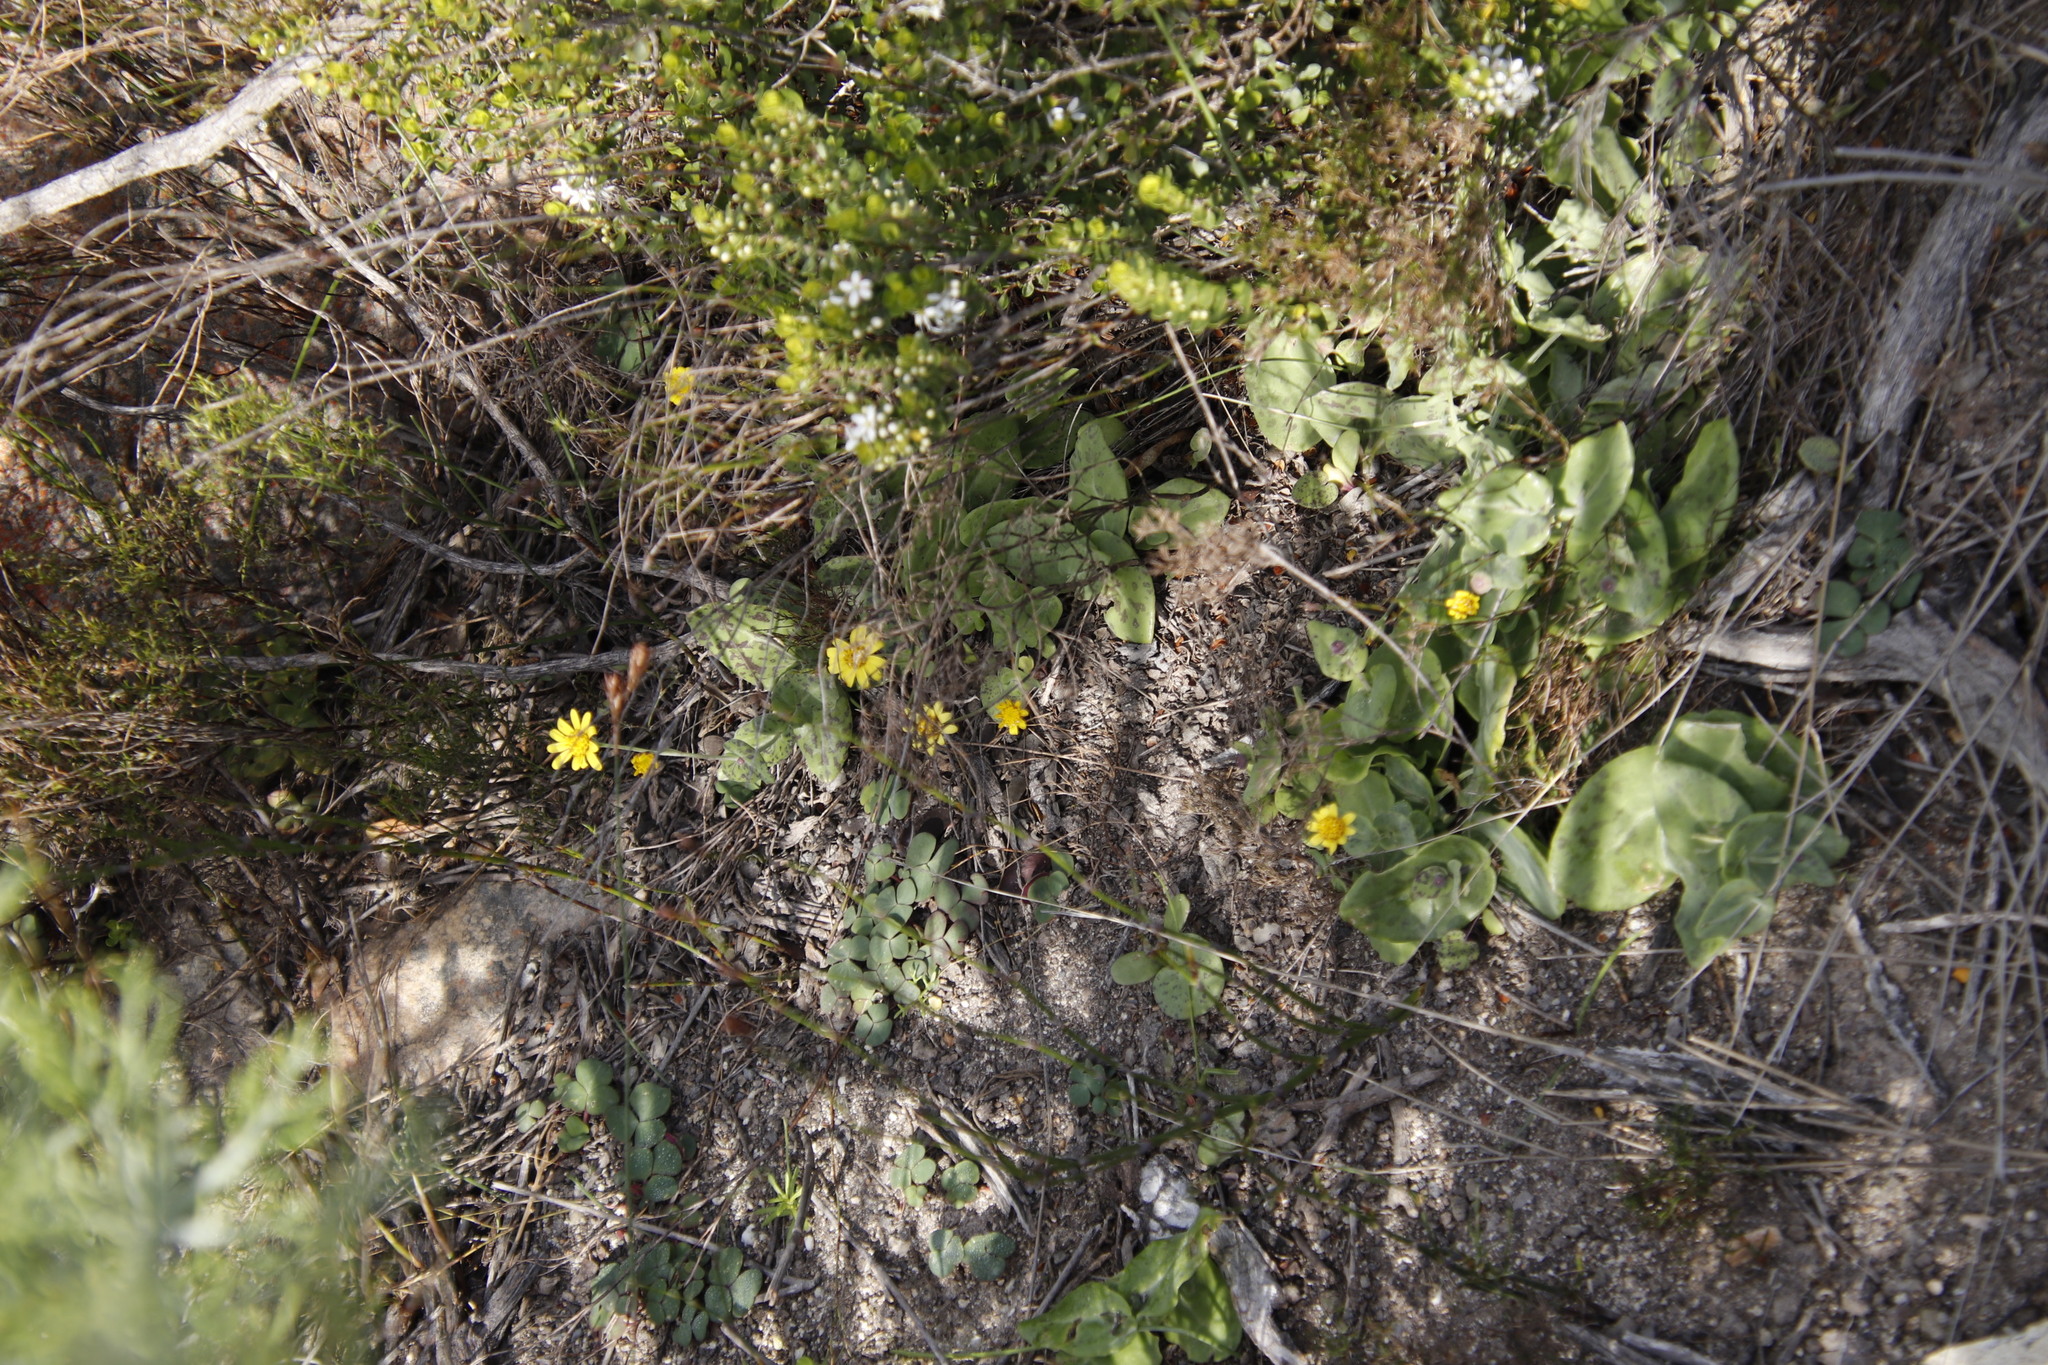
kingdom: Plantae
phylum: Tracheophyta
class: Magnoliopsida
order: Asterales
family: Asteraceae
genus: Othonna
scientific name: Othonna perfoliata
